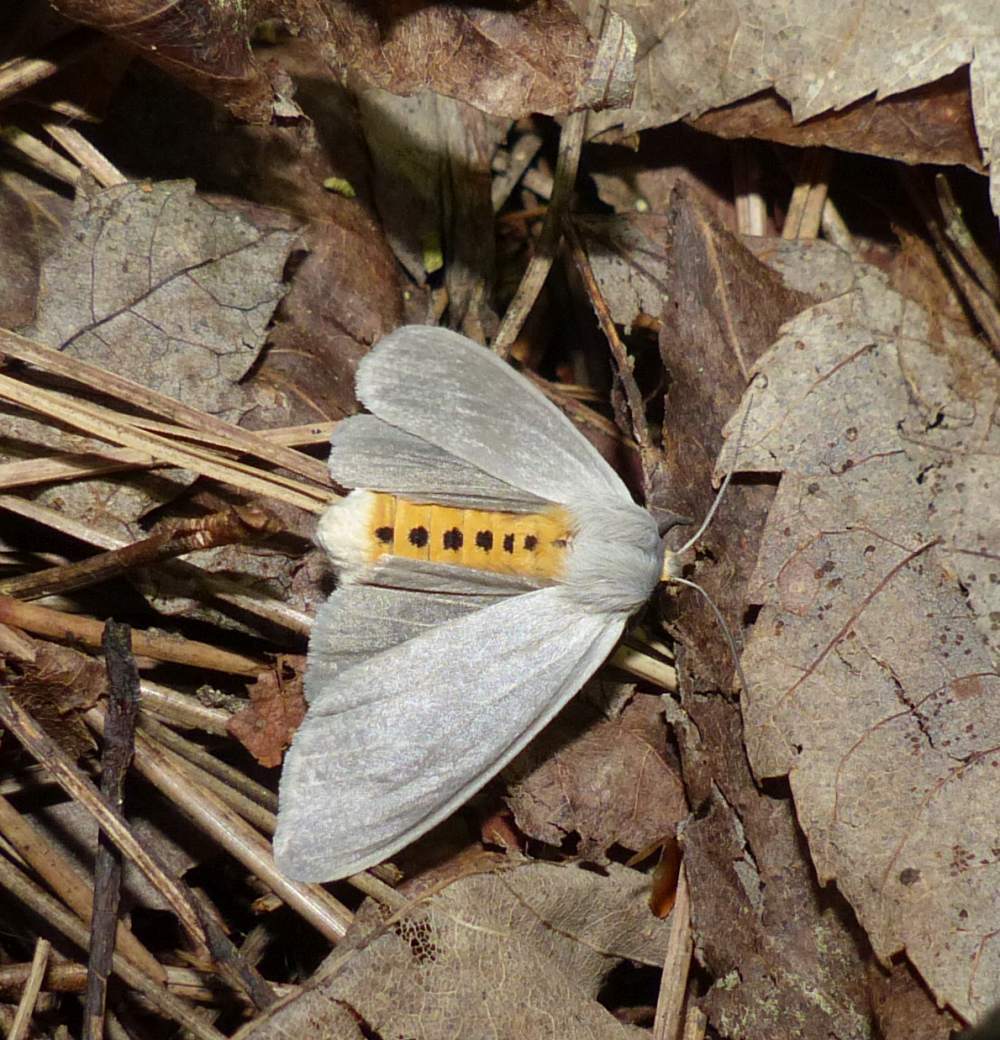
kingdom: Animalia
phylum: Arthropoda
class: Insecta
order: Lepidoptera
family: Erebidae
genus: Euchaetes
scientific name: Euchaetes egle
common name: Milkweed tussock moth
